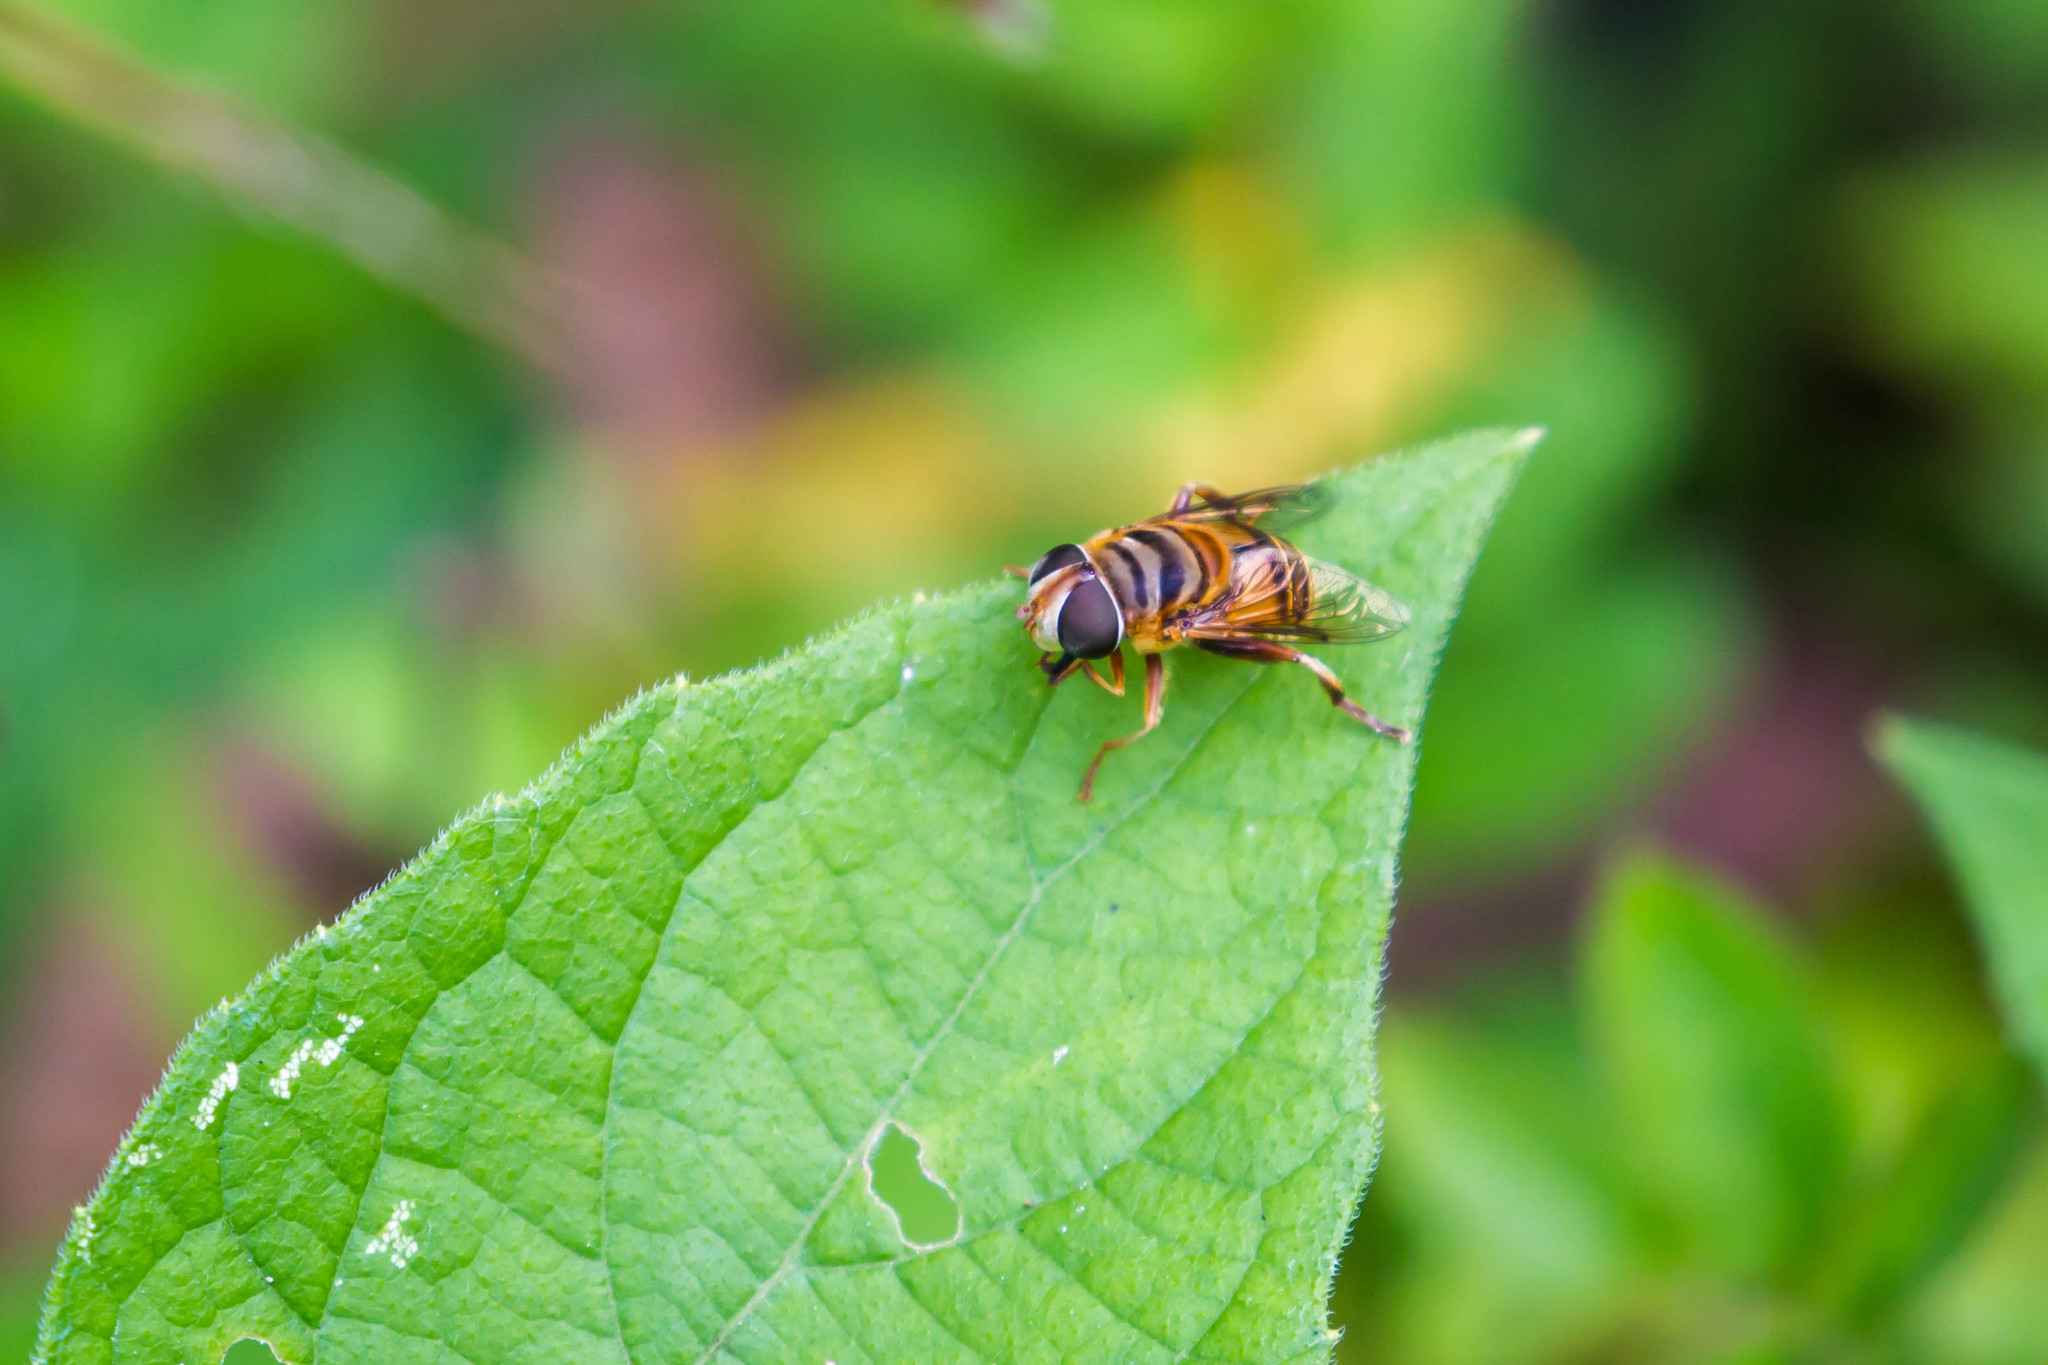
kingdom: Animalia
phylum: Arthropoda
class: Insecta
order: Diptera
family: Syrphidae
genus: Palpada
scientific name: Palpada vinetorum
